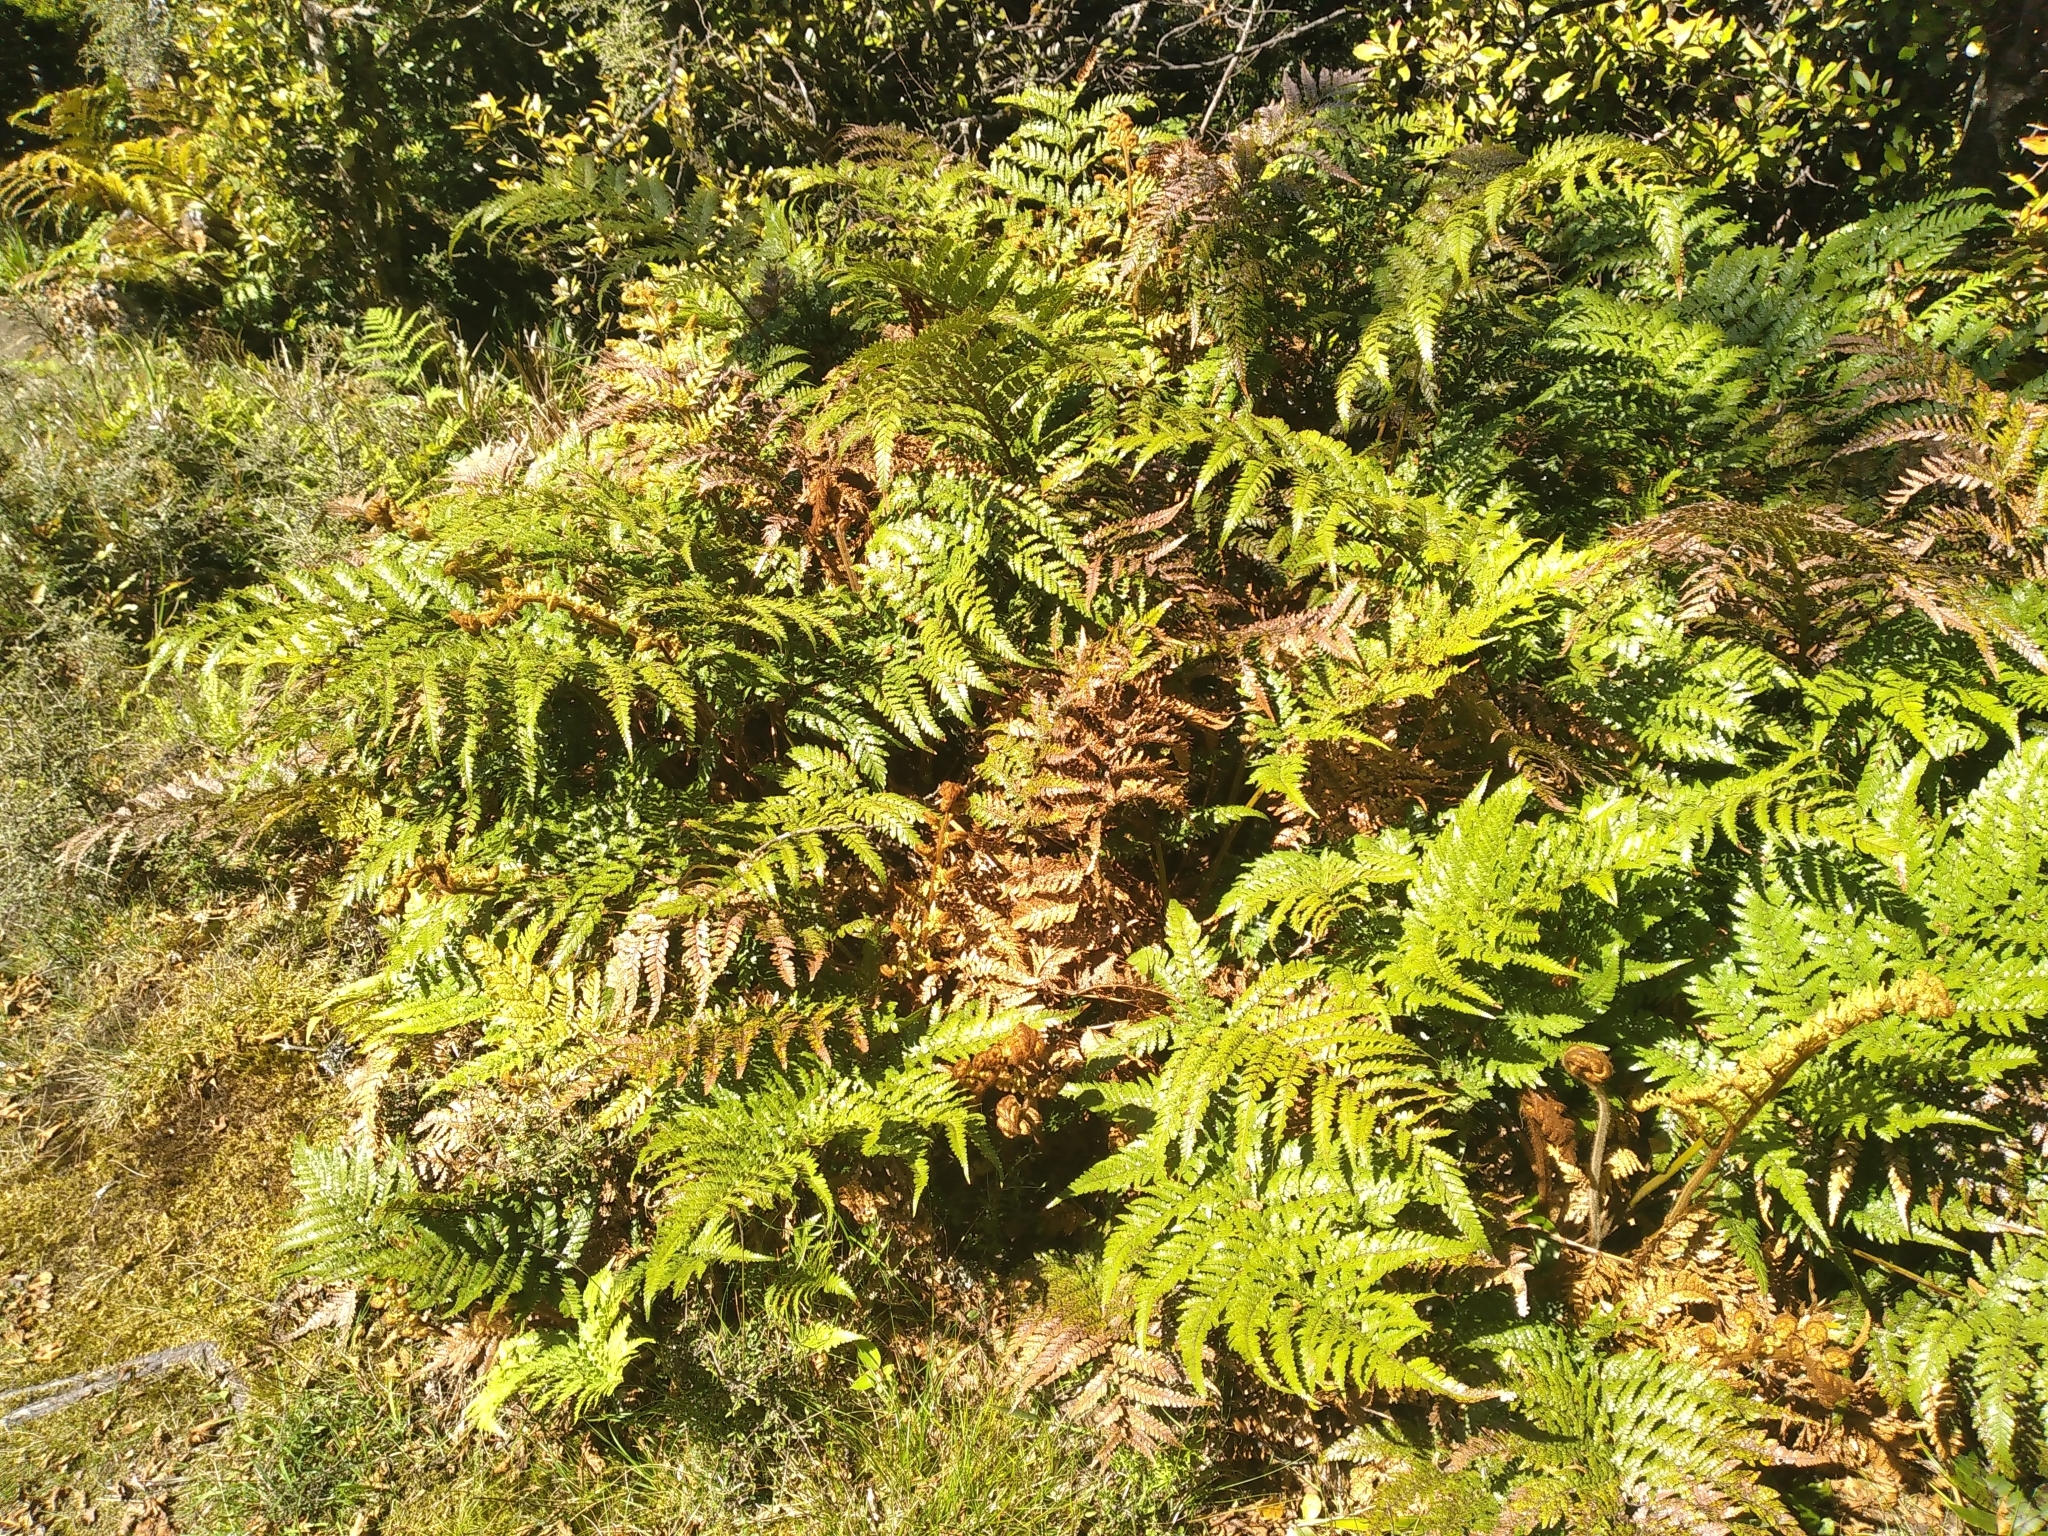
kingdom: Plantae
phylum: Tracheophyta
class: Polypodiopsida
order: Cyatheales
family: Dicksoniaceae
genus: Dicksonia
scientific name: Dicksonia lanata
